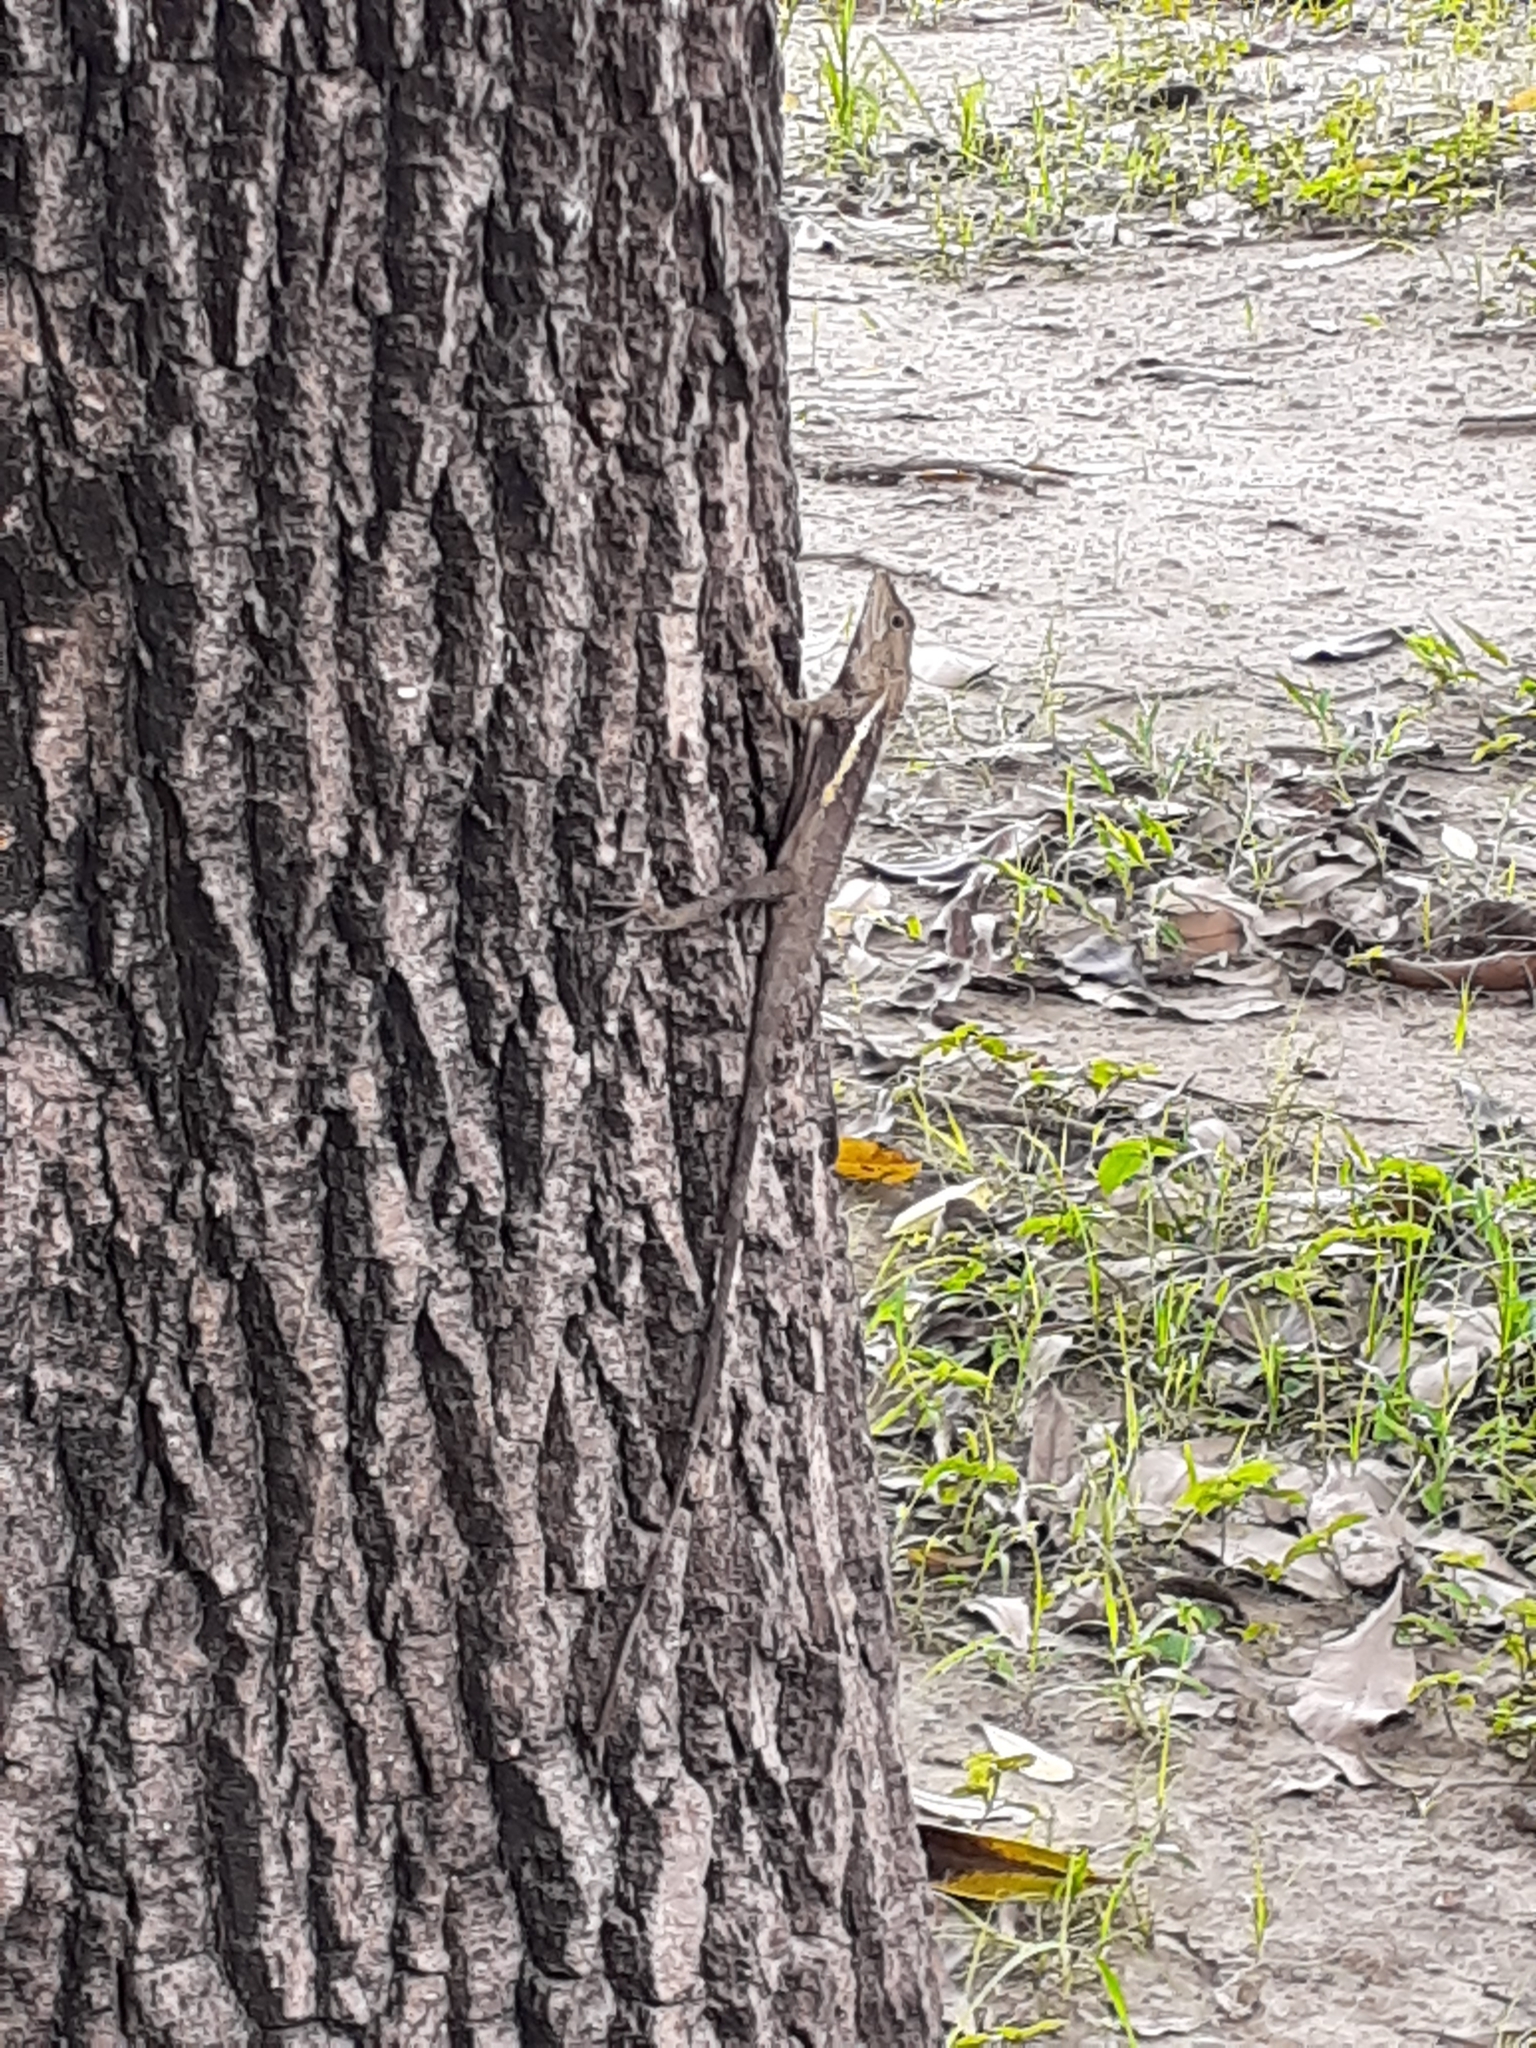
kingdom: Animalia
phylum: Chordata
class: Squamata
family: Agamidae
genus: Diploderma
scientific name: Diploderma swinhonis
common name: Taiwan japalure
